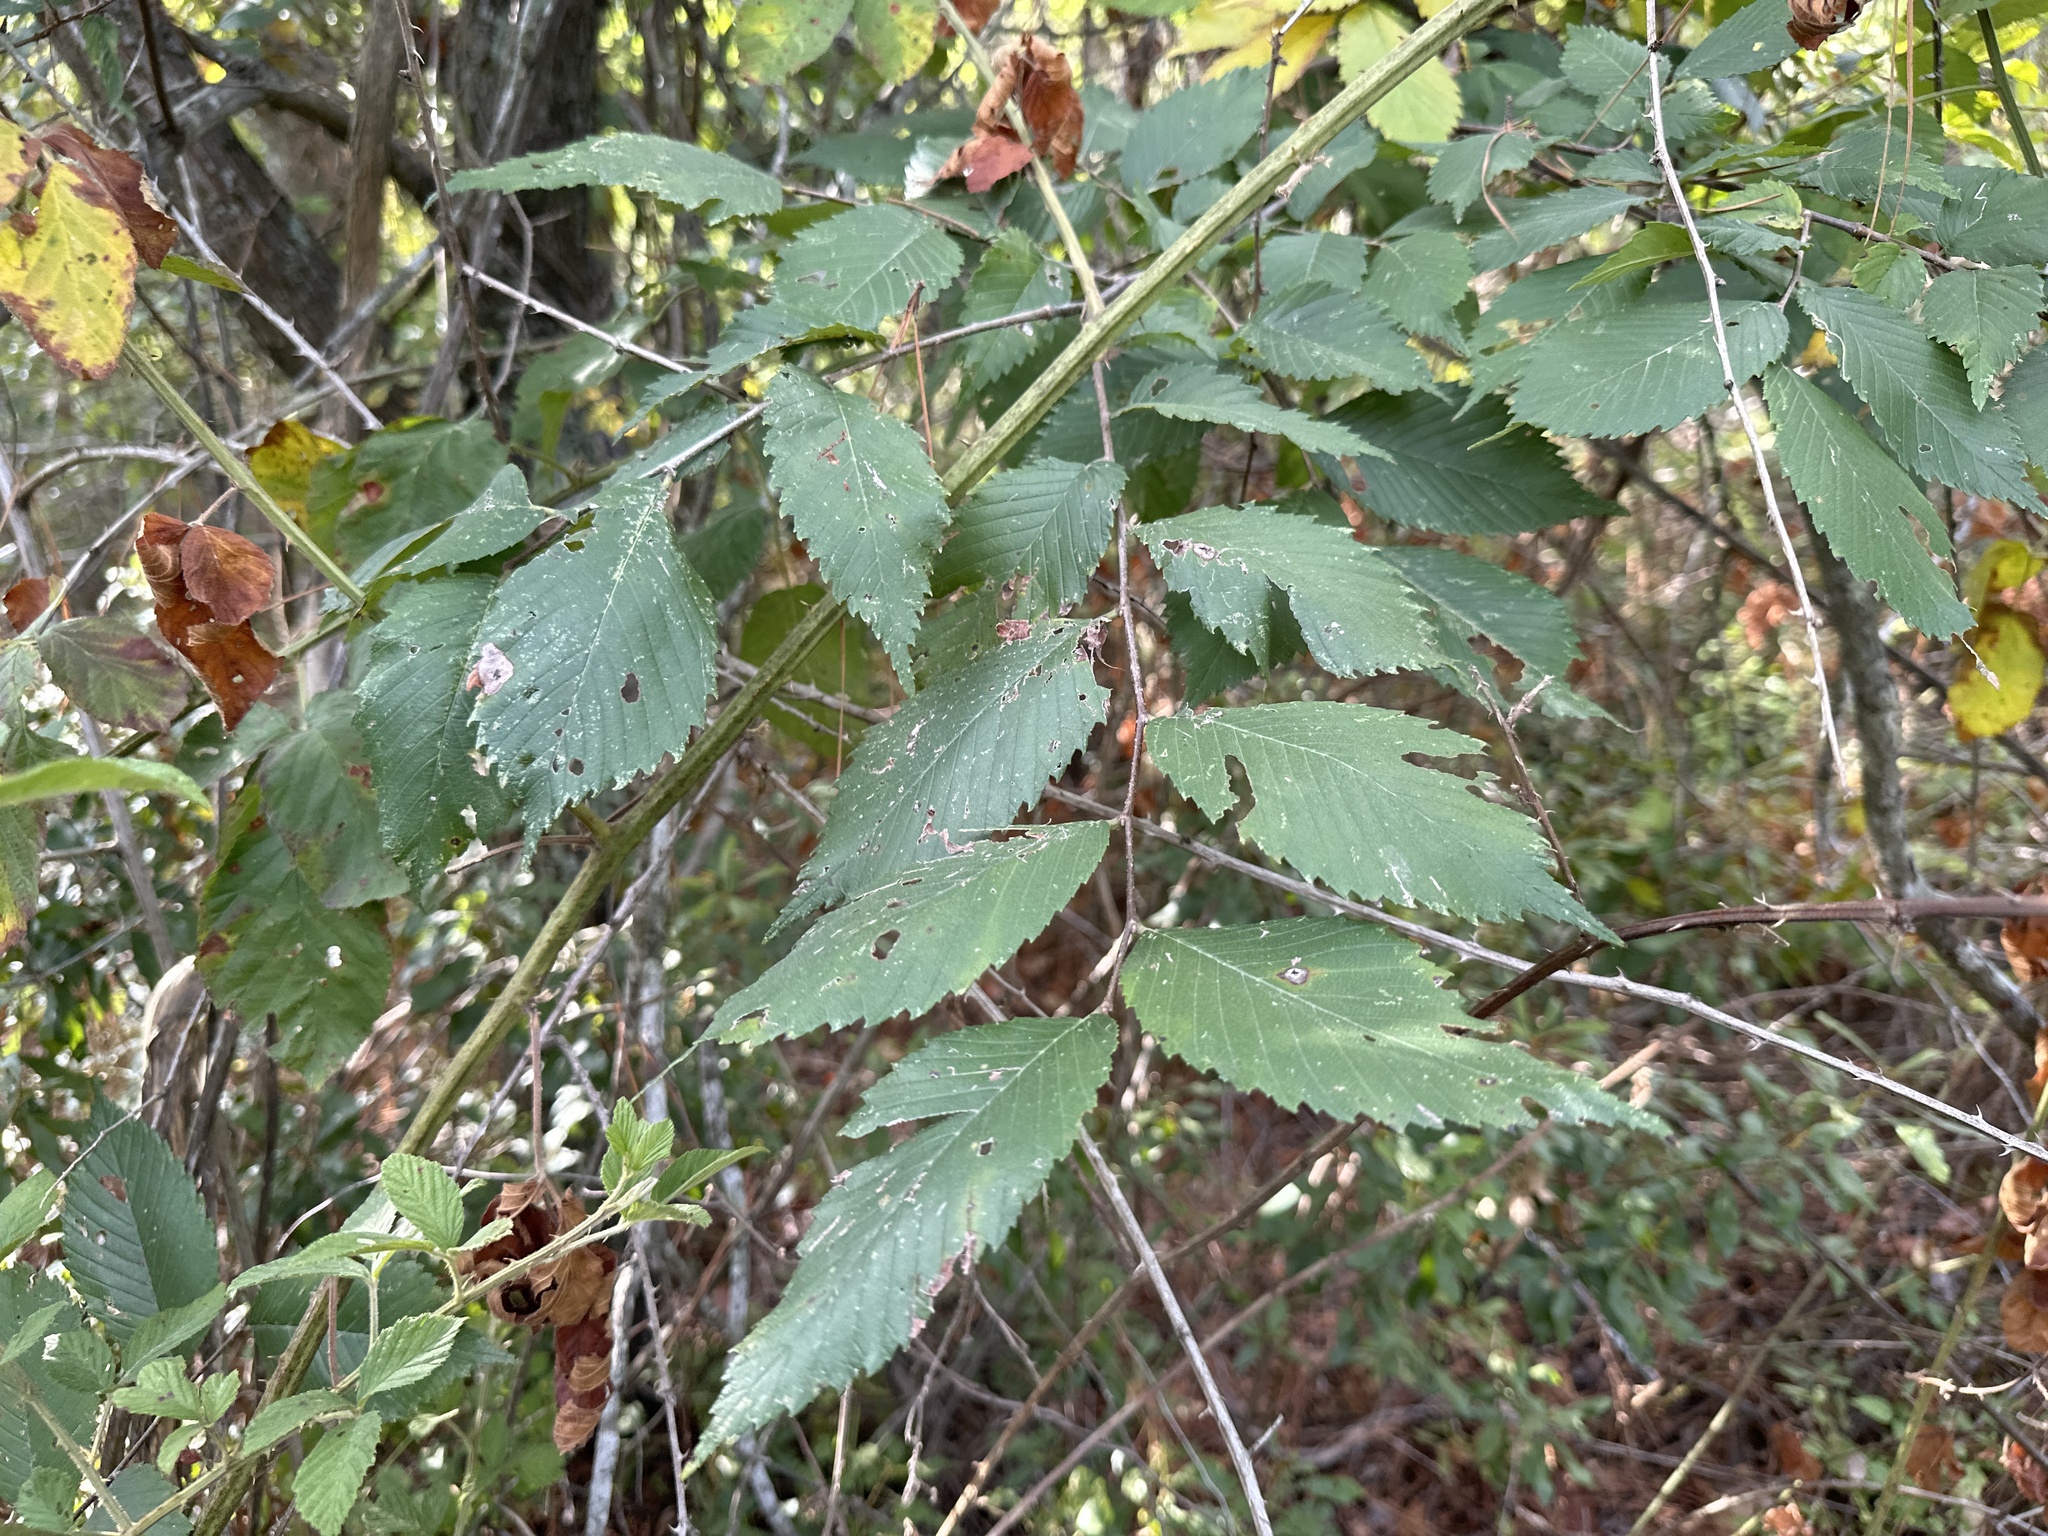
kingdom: Plantae
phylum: Tracheophyta
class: Magnoliopsida
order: Rosales
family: Ulmaceae
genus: Ulmus
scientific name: Ulmus americana
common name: American elm
